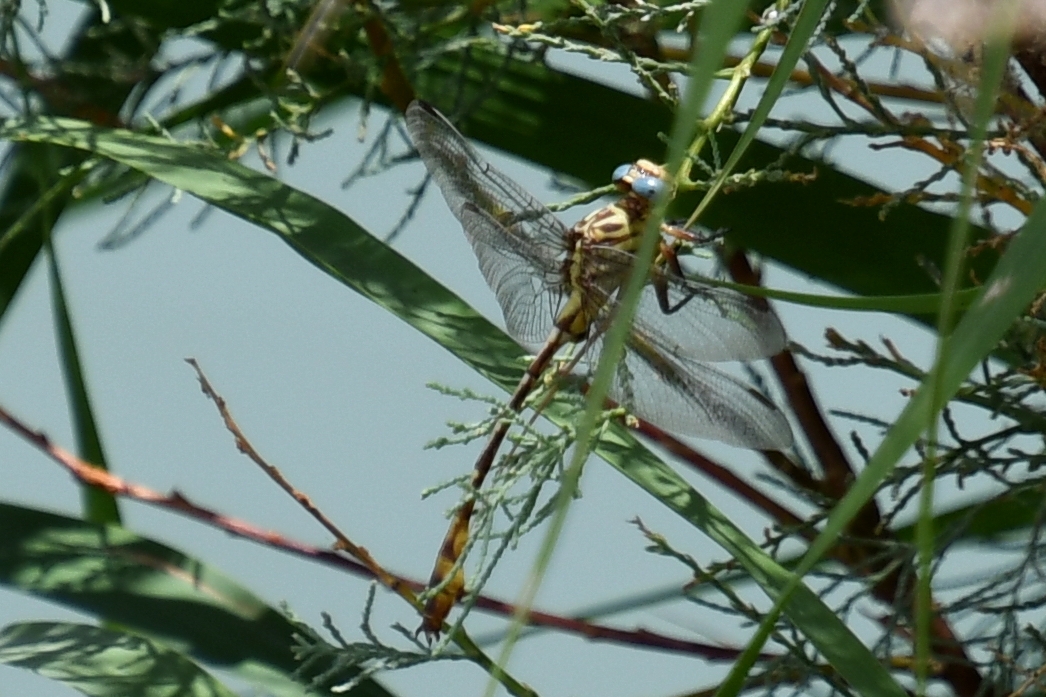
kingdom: Animalia
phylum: Arthropoda
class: Insecta
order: Odonata
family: Gomphidae
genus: Stylurus
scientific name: Stylurus plagiatus
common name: Russet-tipped clubtail
